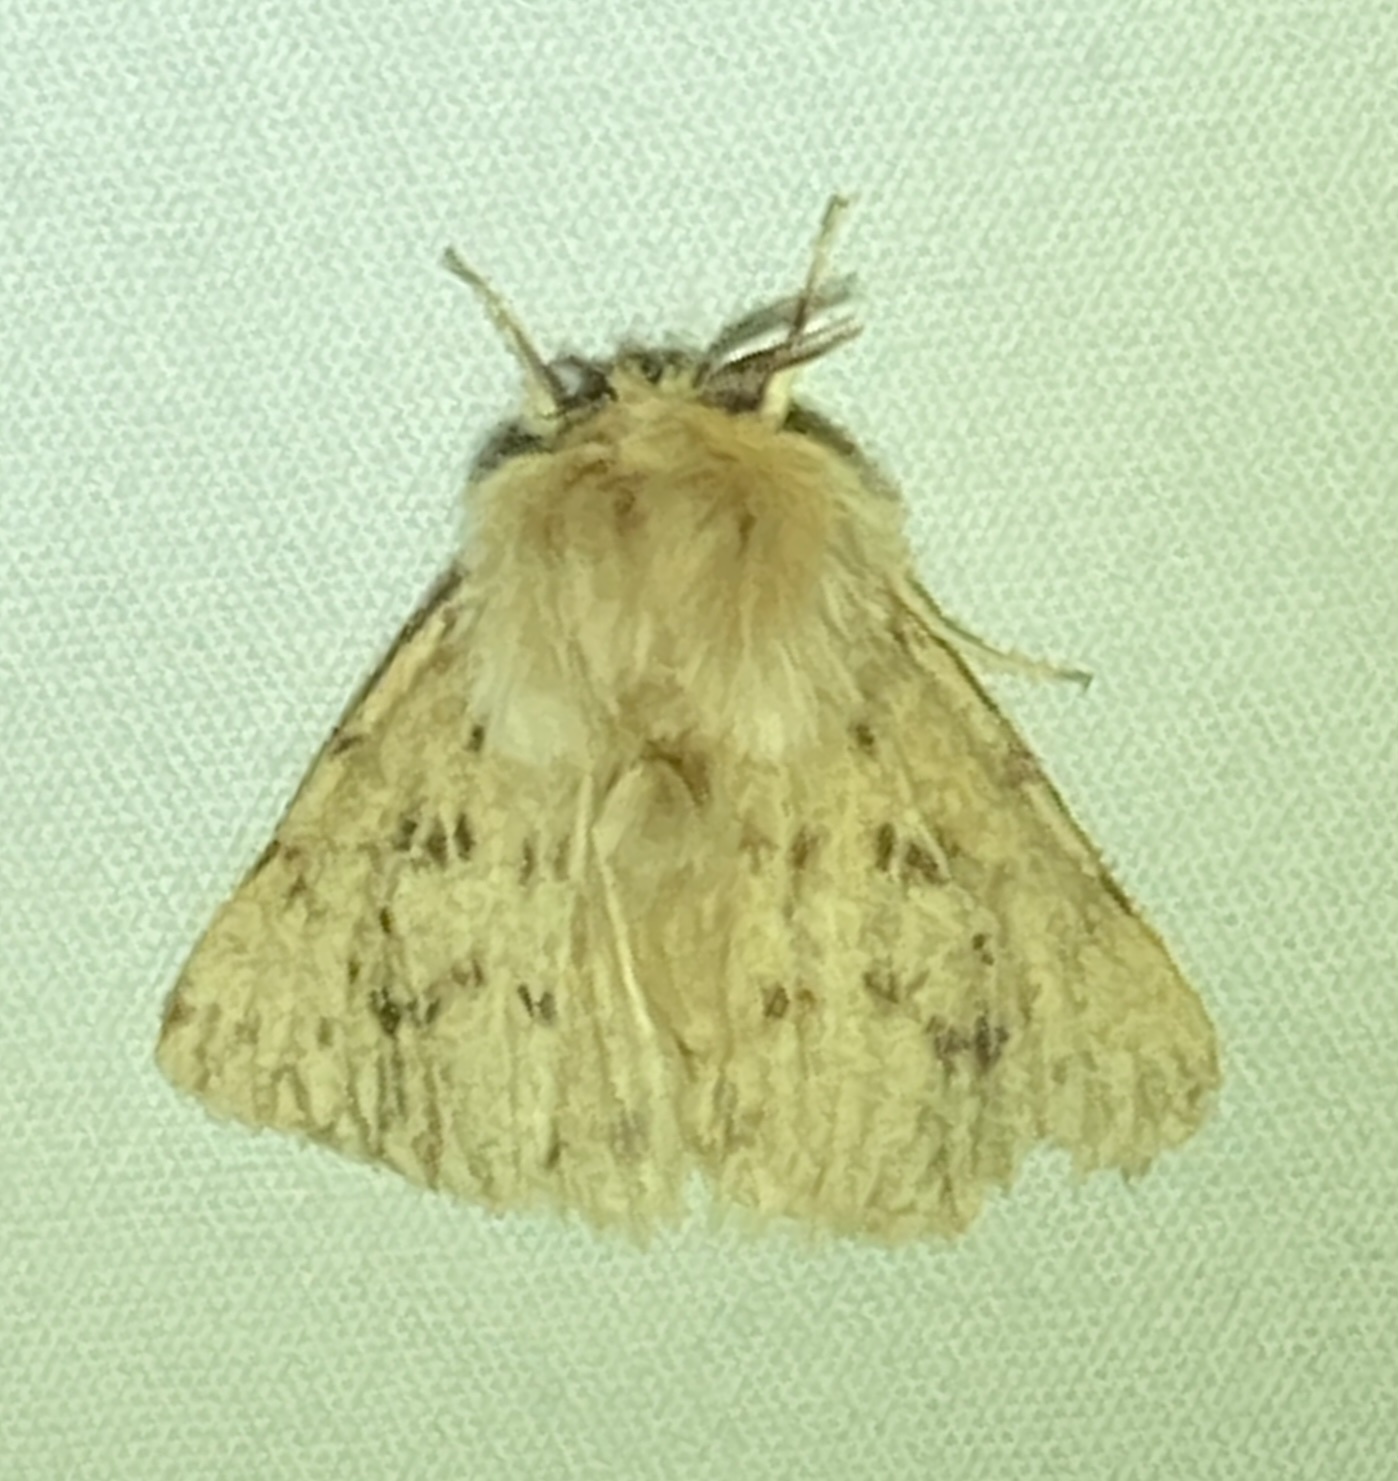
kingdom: Animalia
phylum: Arthropoda
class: Insecta
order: Lepidoptera
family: Erebidae
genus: Spilosoma
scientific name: Spilosoma vagans
